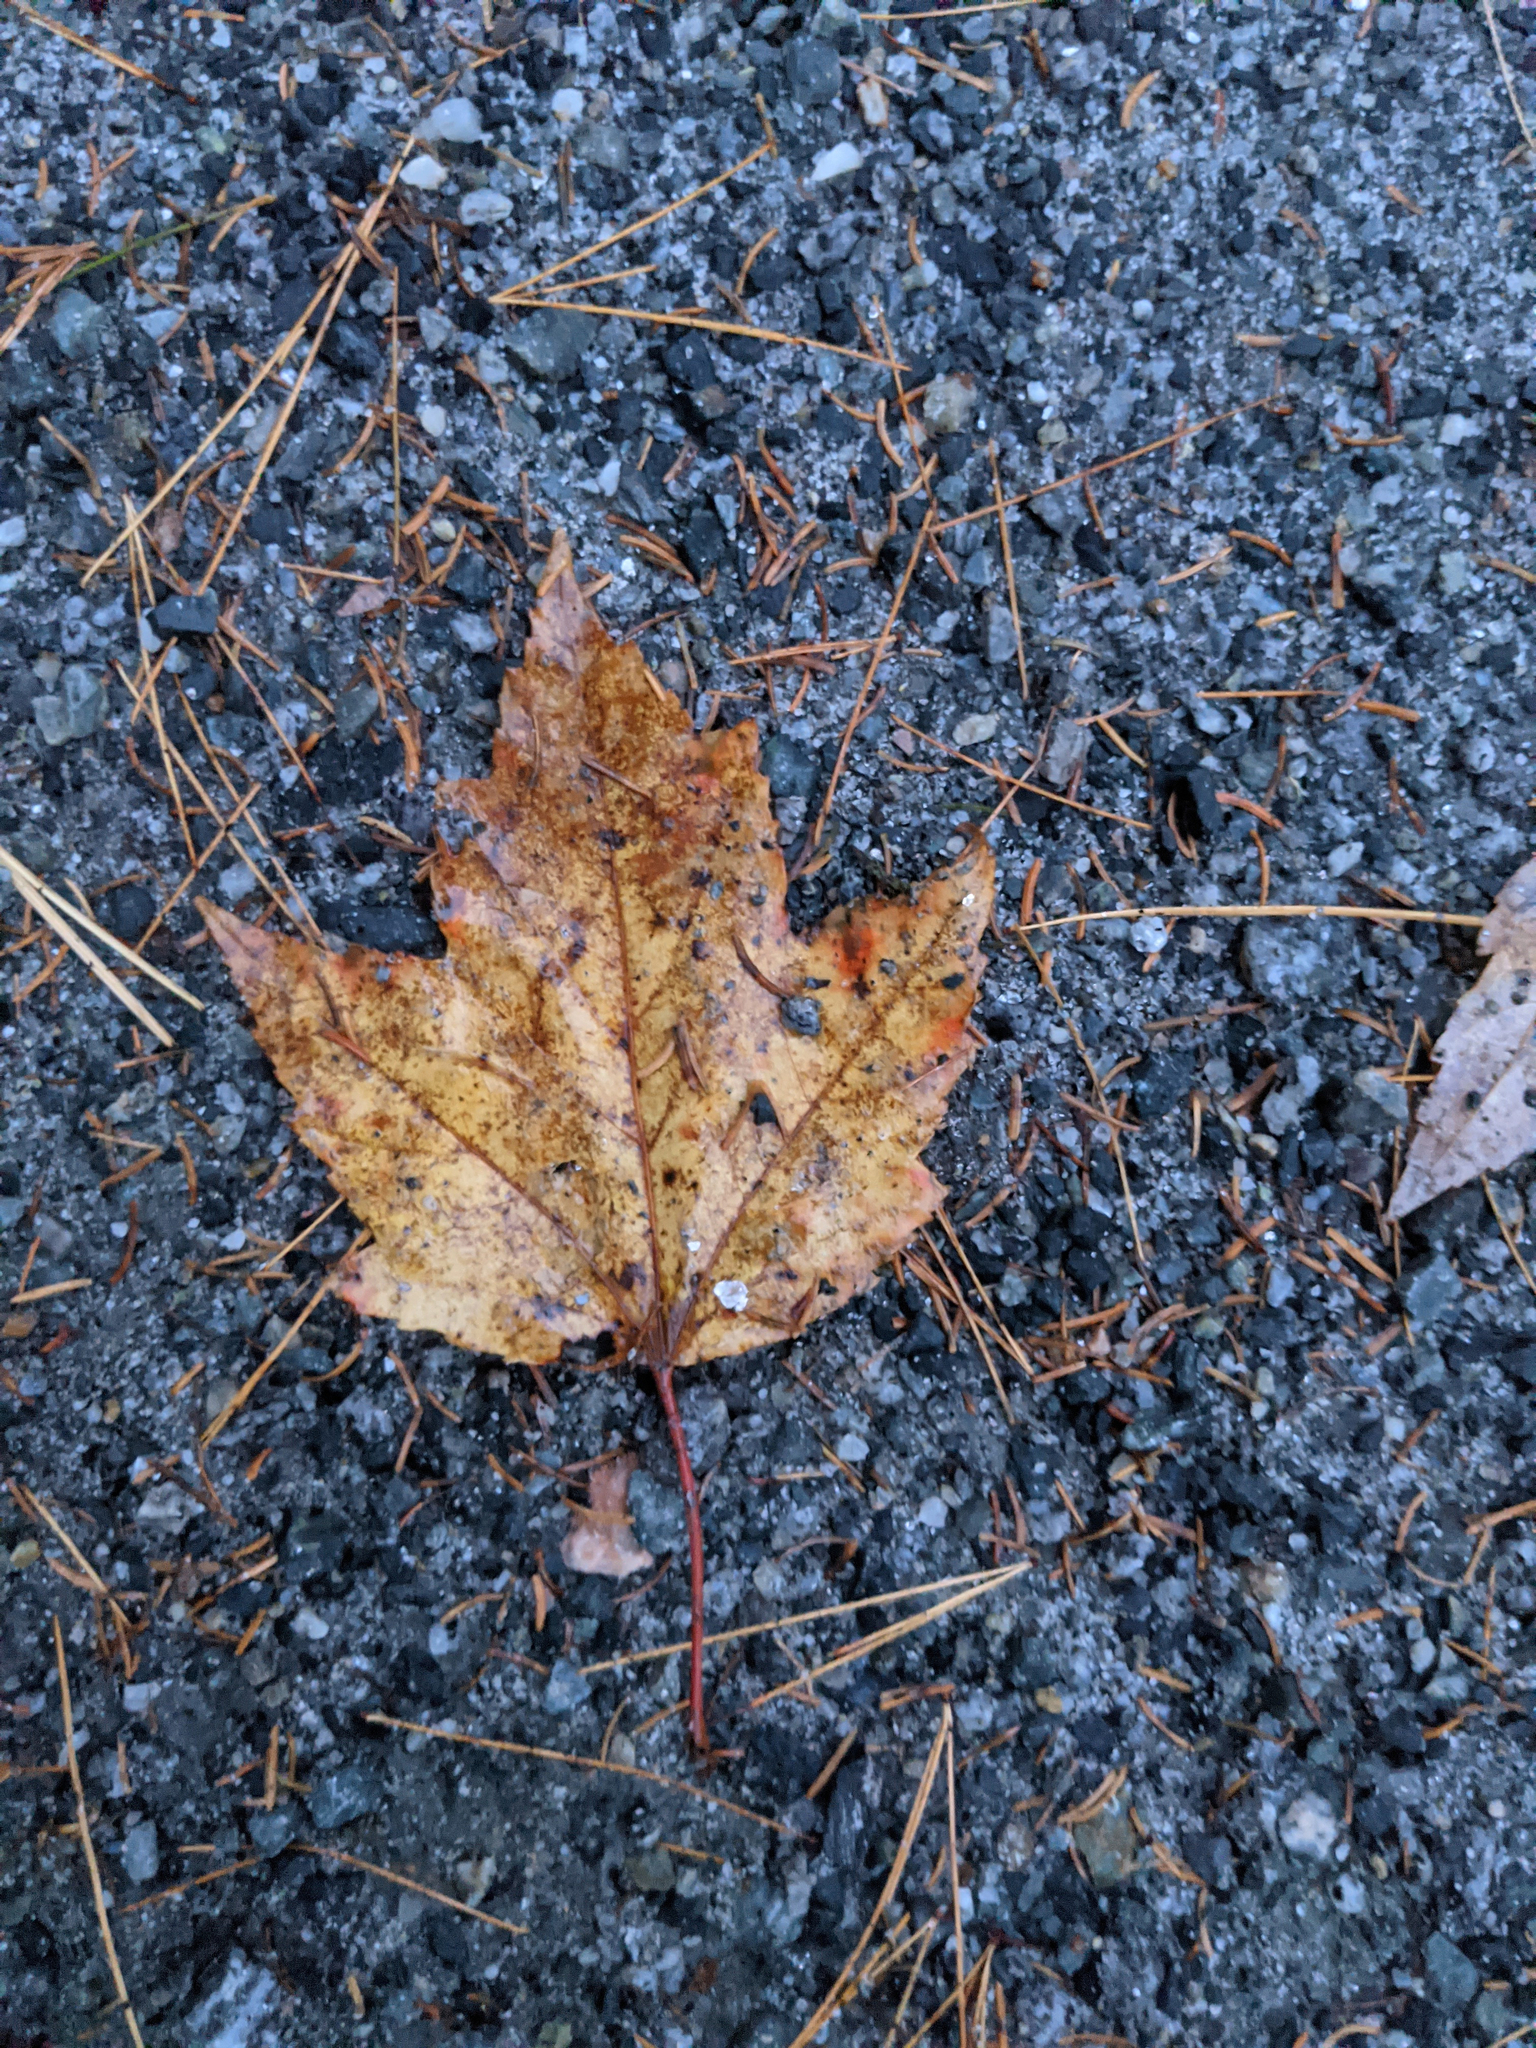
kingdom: Plantae
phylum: Tracheophyta
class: Magnoliopsida
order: Sapindales
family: Sapindaceae
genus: Acer
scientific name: Acer rubrum
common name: Red maple
